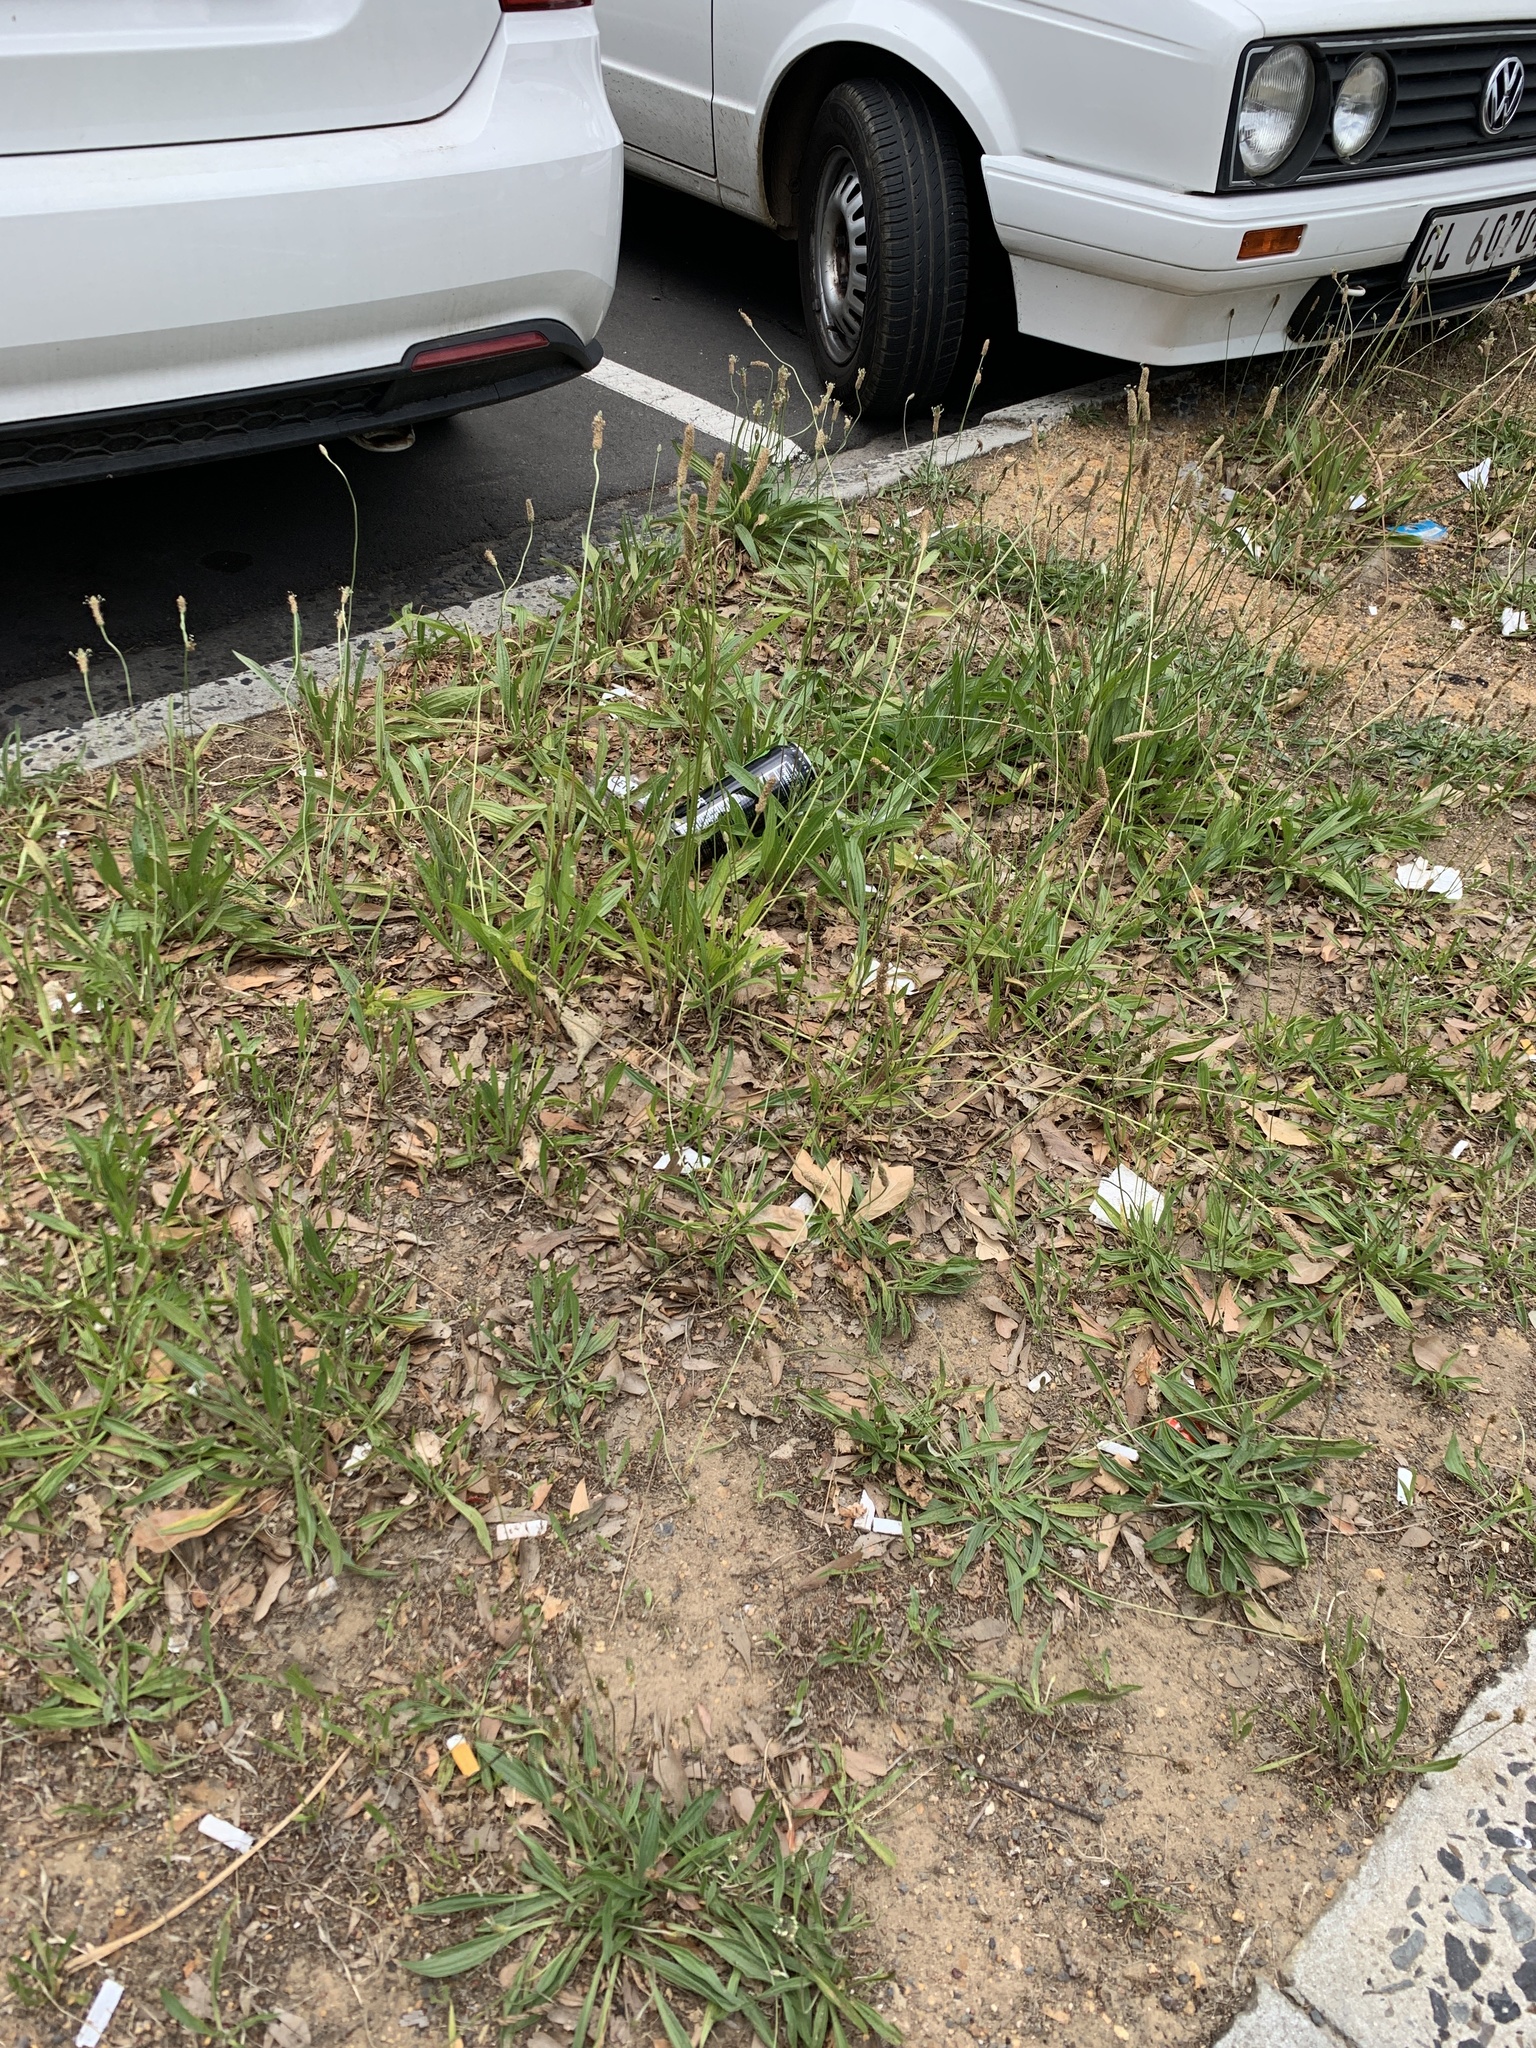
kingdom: Plantae
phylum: Tracheophyta
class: Magnoliopsida
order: Lamiales
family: Plantaginaceae
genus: Plantago
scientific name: Plantago lanceolata
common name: Ribwort plantain
